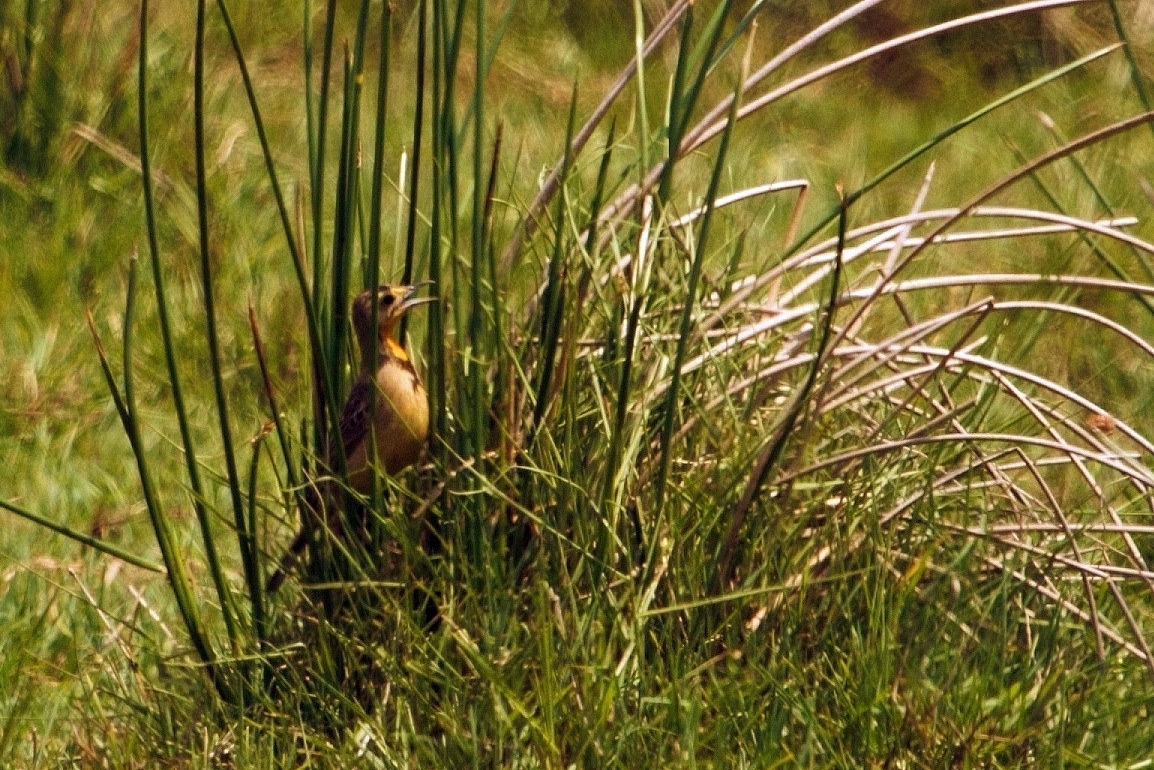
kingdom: Animalia
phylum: Chordata
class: Aves
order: Passeriformes
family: Motacillidae
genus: Macronyx
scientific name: Macronyx croceus
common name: Yellow-throated longclaw
